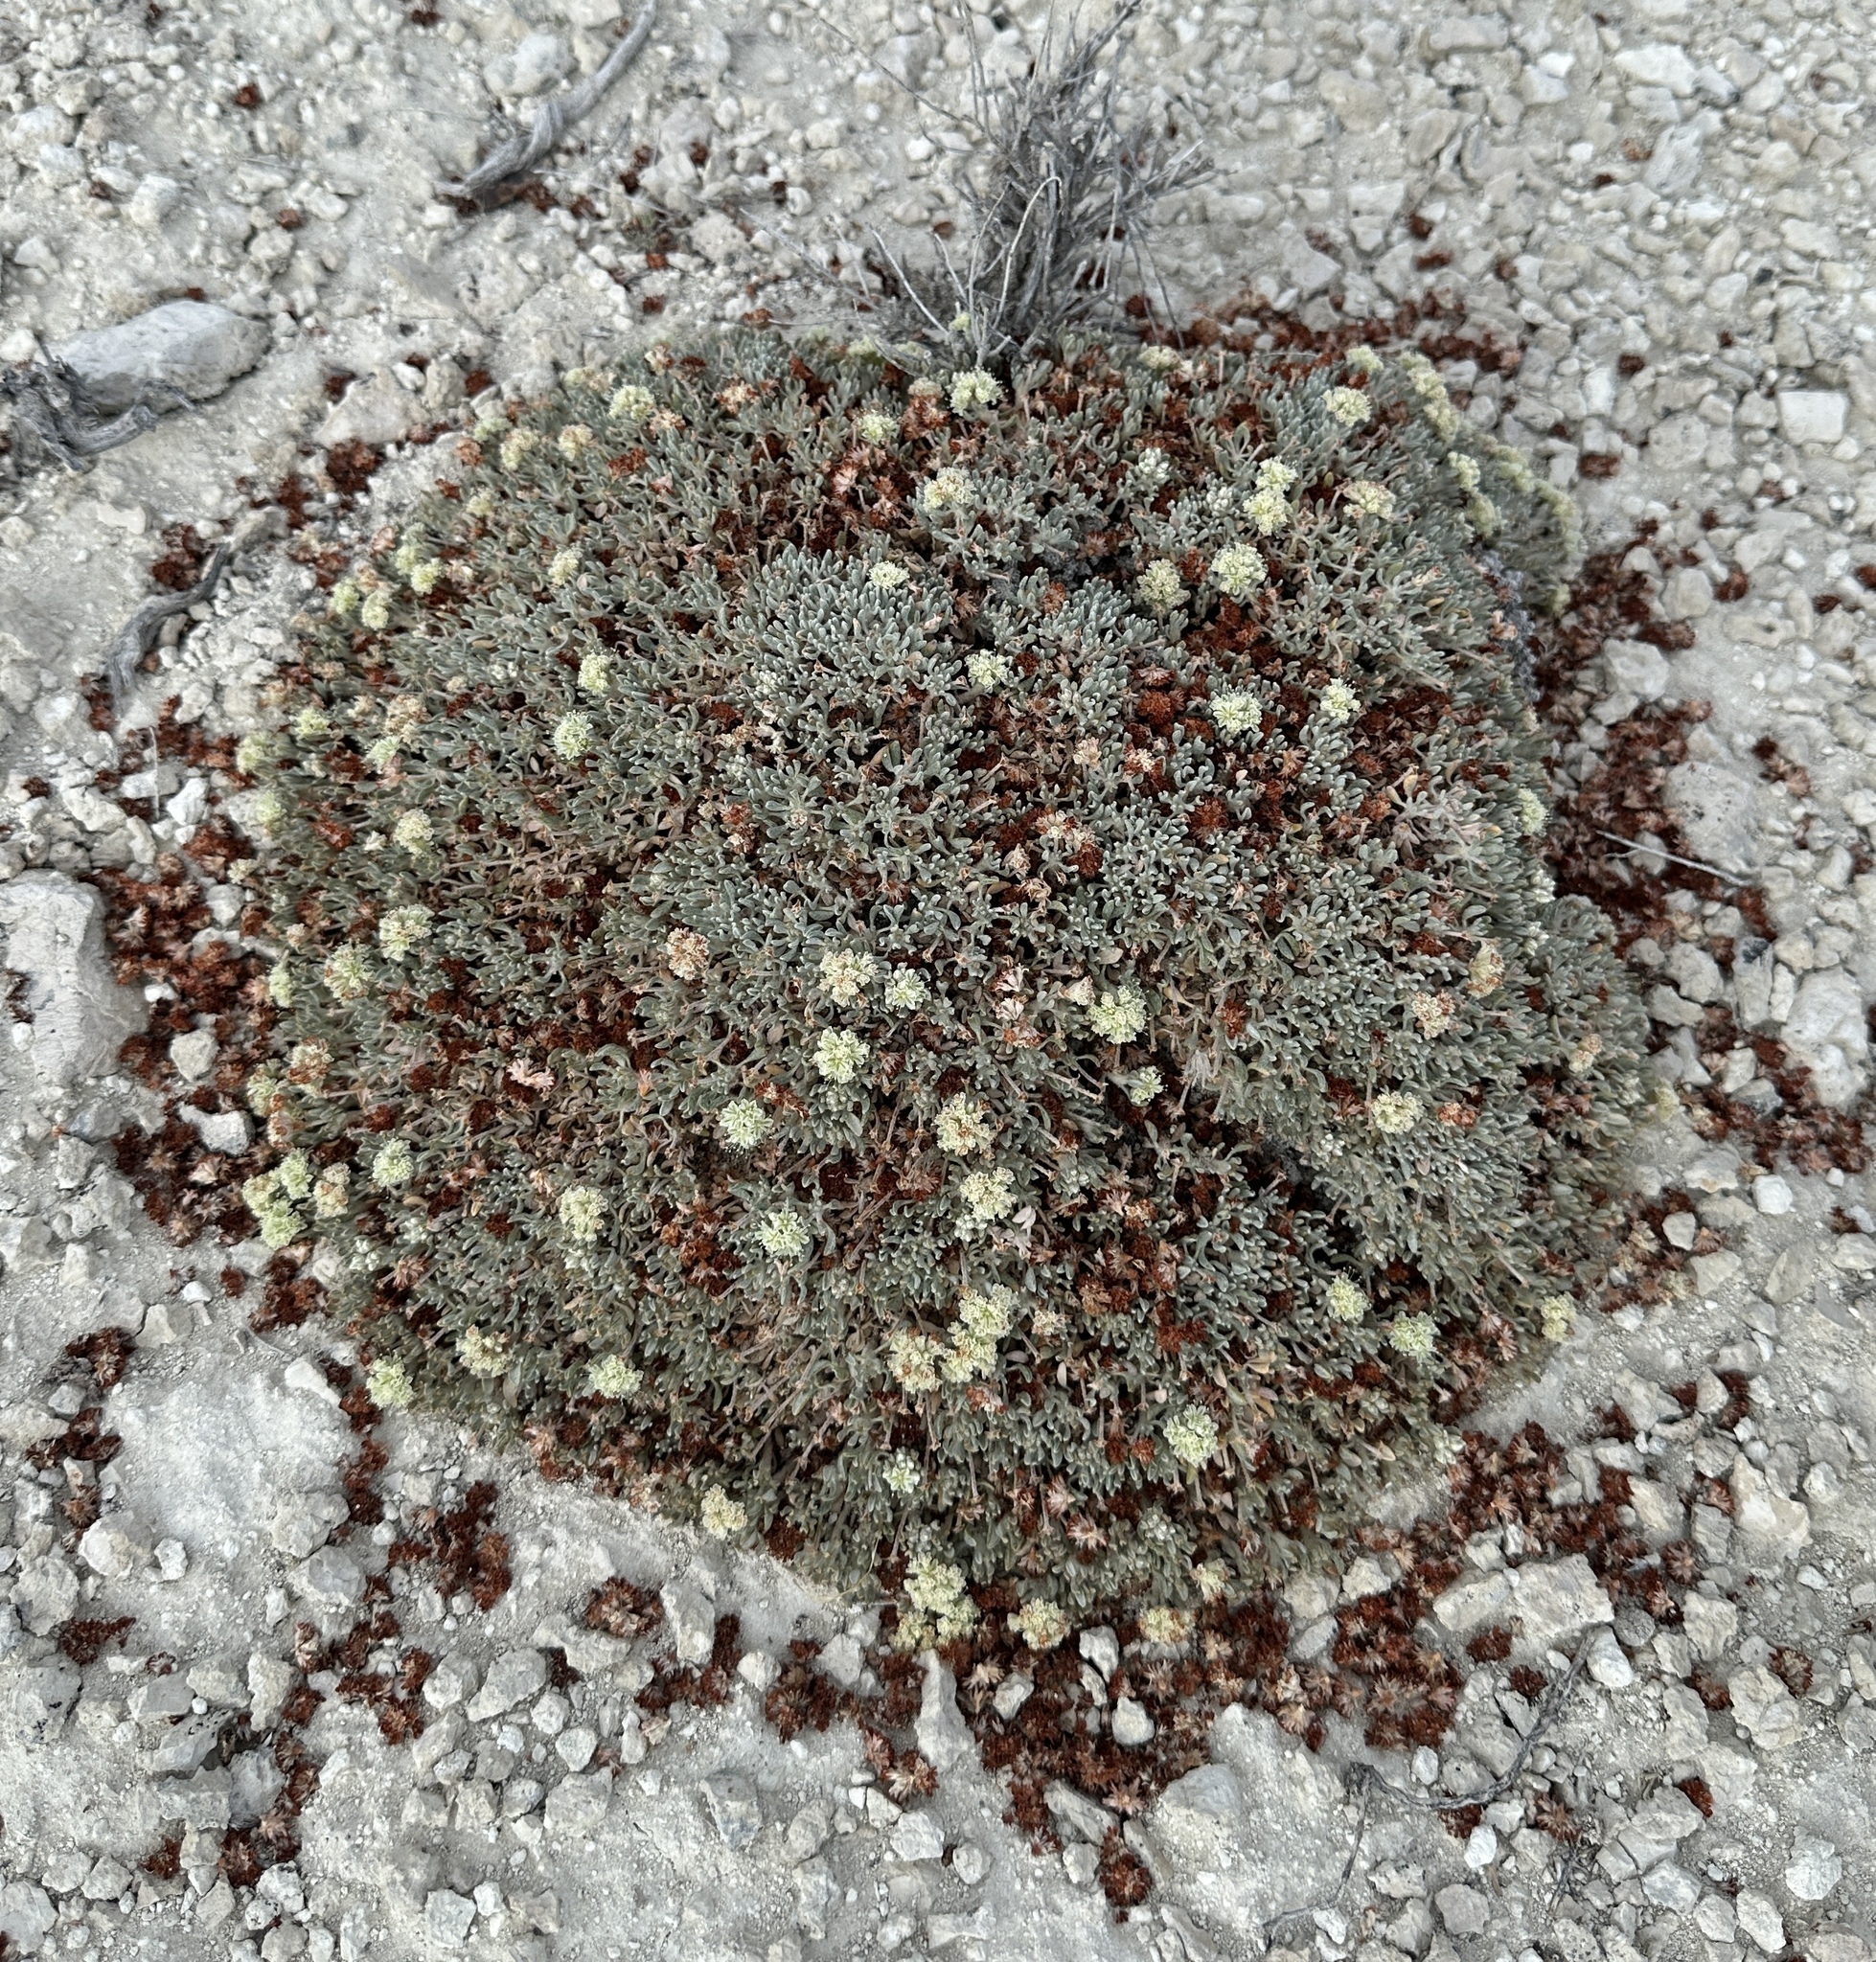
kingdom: Plantae
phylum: Tracheophyta
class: Magnoliopsida
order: Caryophyllales
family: Polygonaceae
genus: Eriogonum
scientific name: Eriogonum shockleyi
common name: Shockley's wild buckwheat
